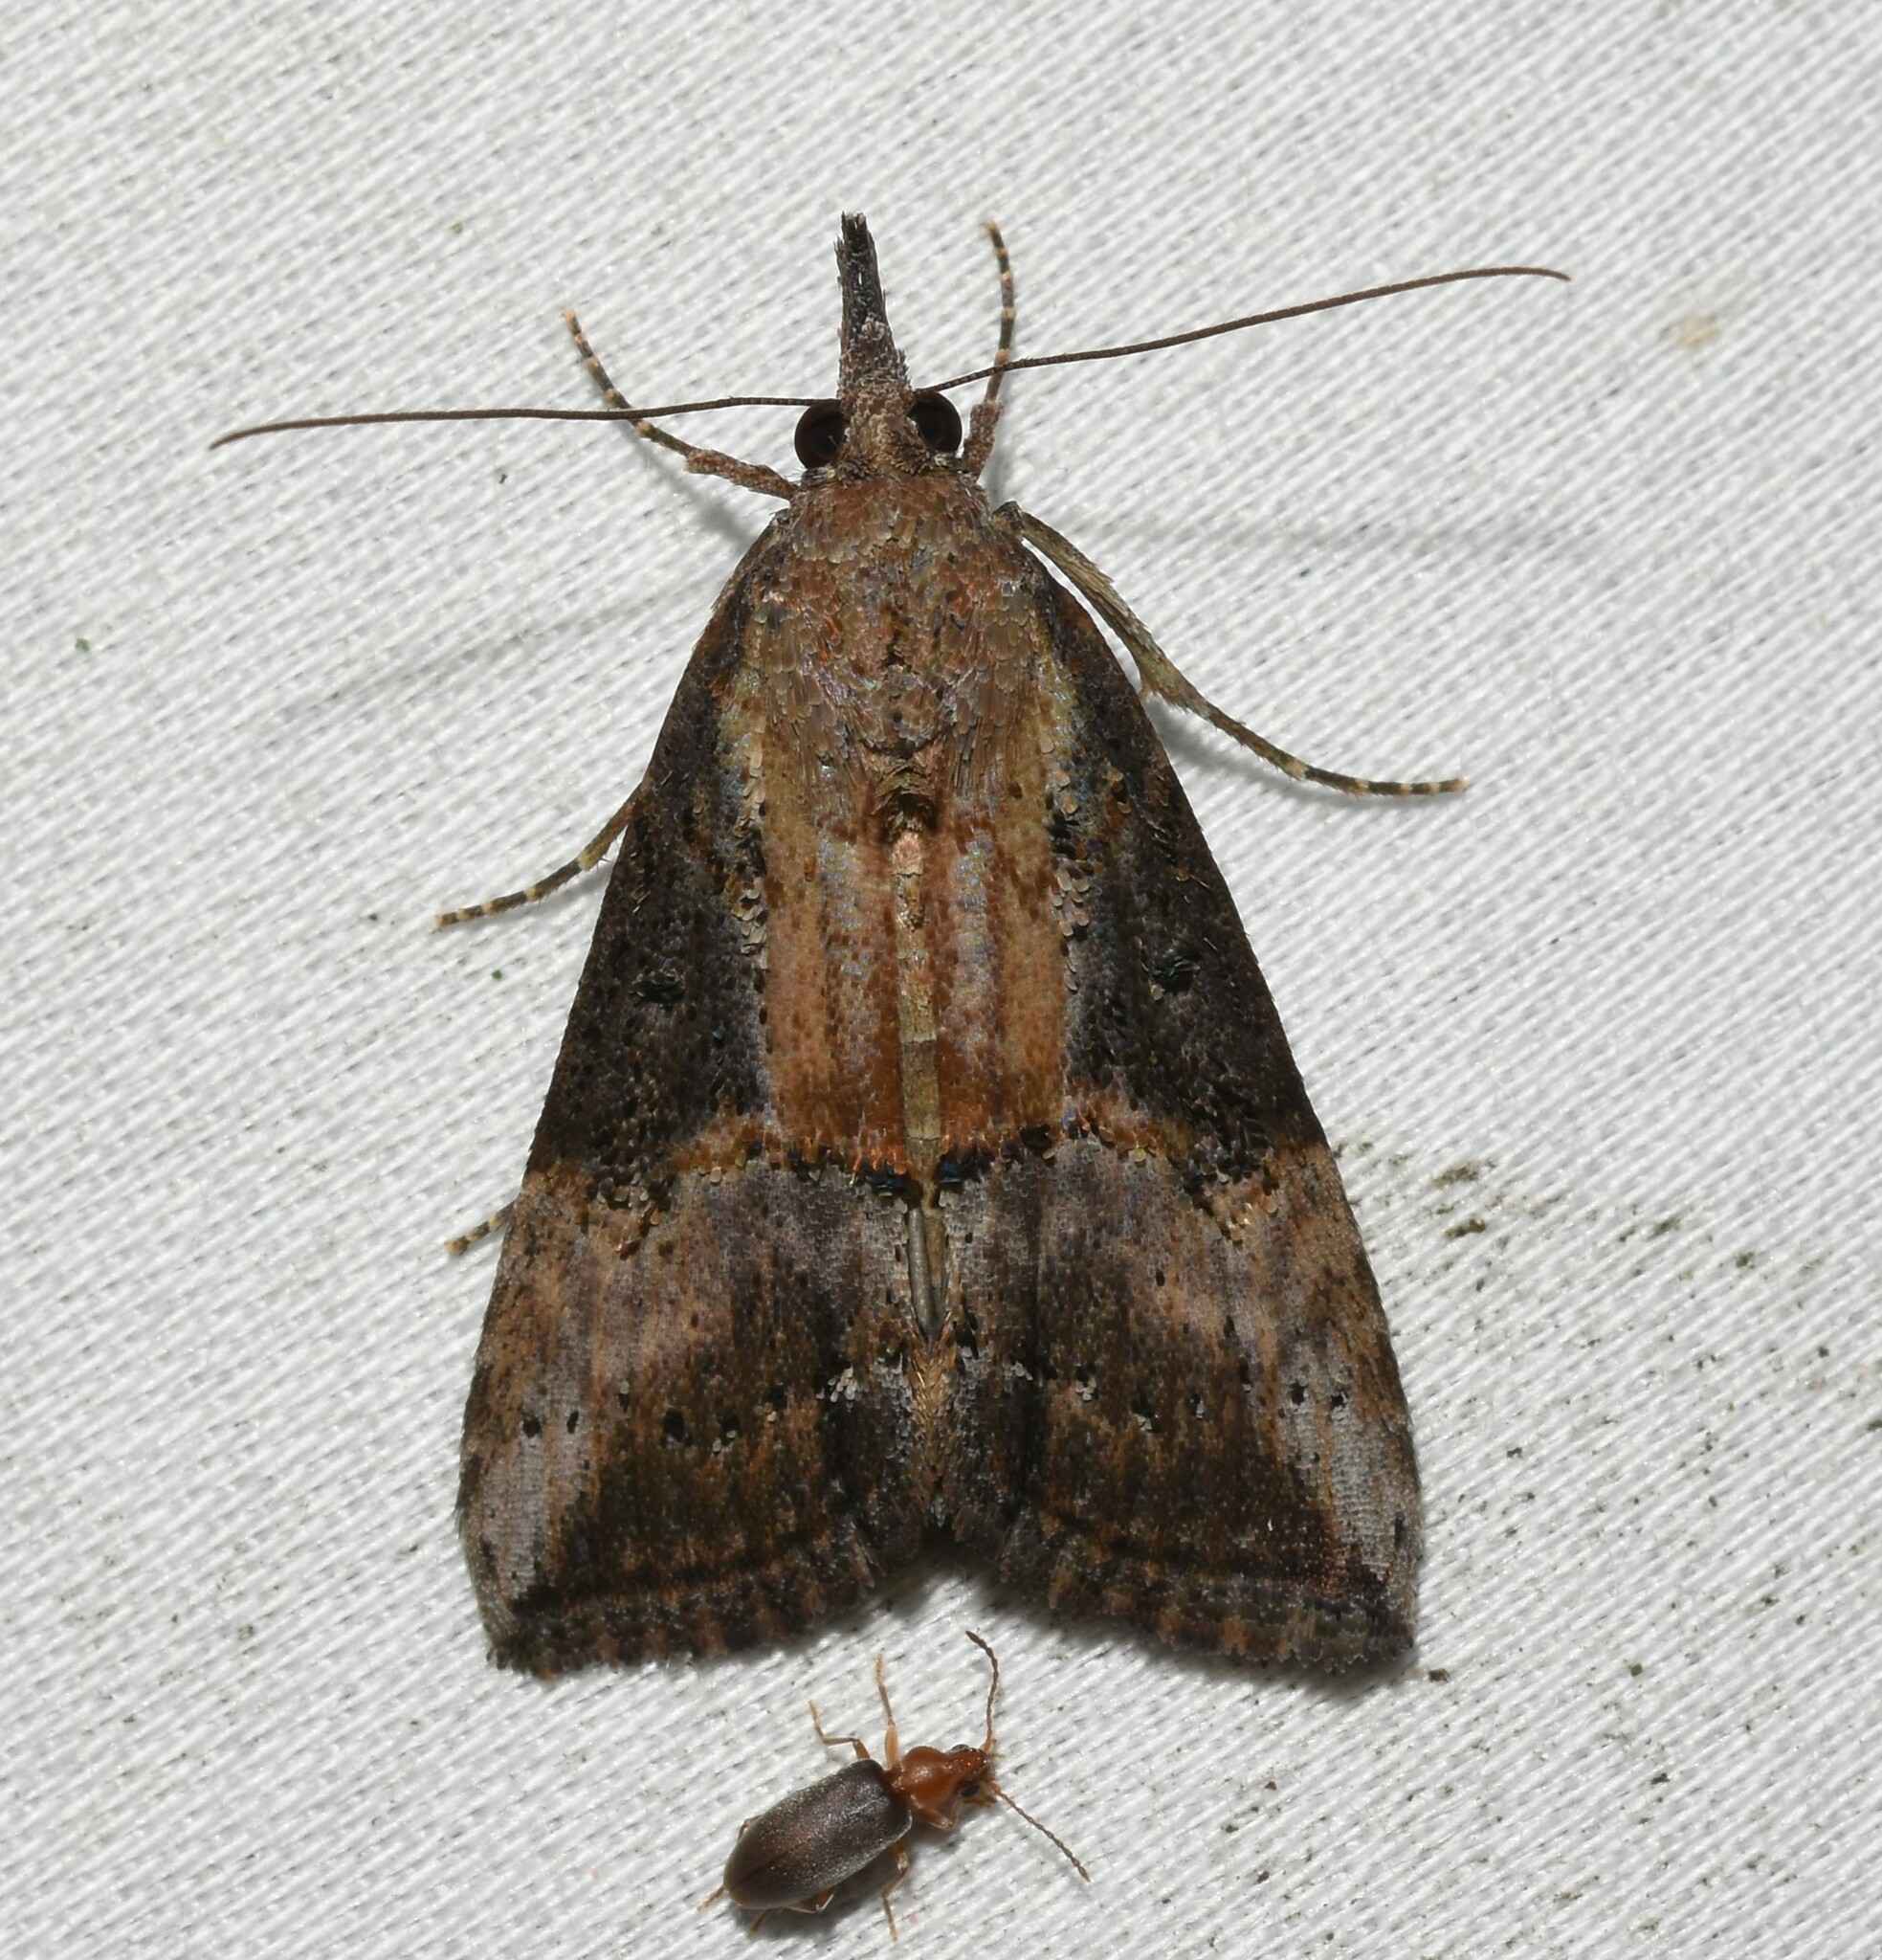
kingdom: Animalia
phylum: Arthropoda
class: Insecta
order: Lepidoptera
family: Erebidae
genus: Hypena
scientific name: Hypena scabra
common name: Green cloverworm
